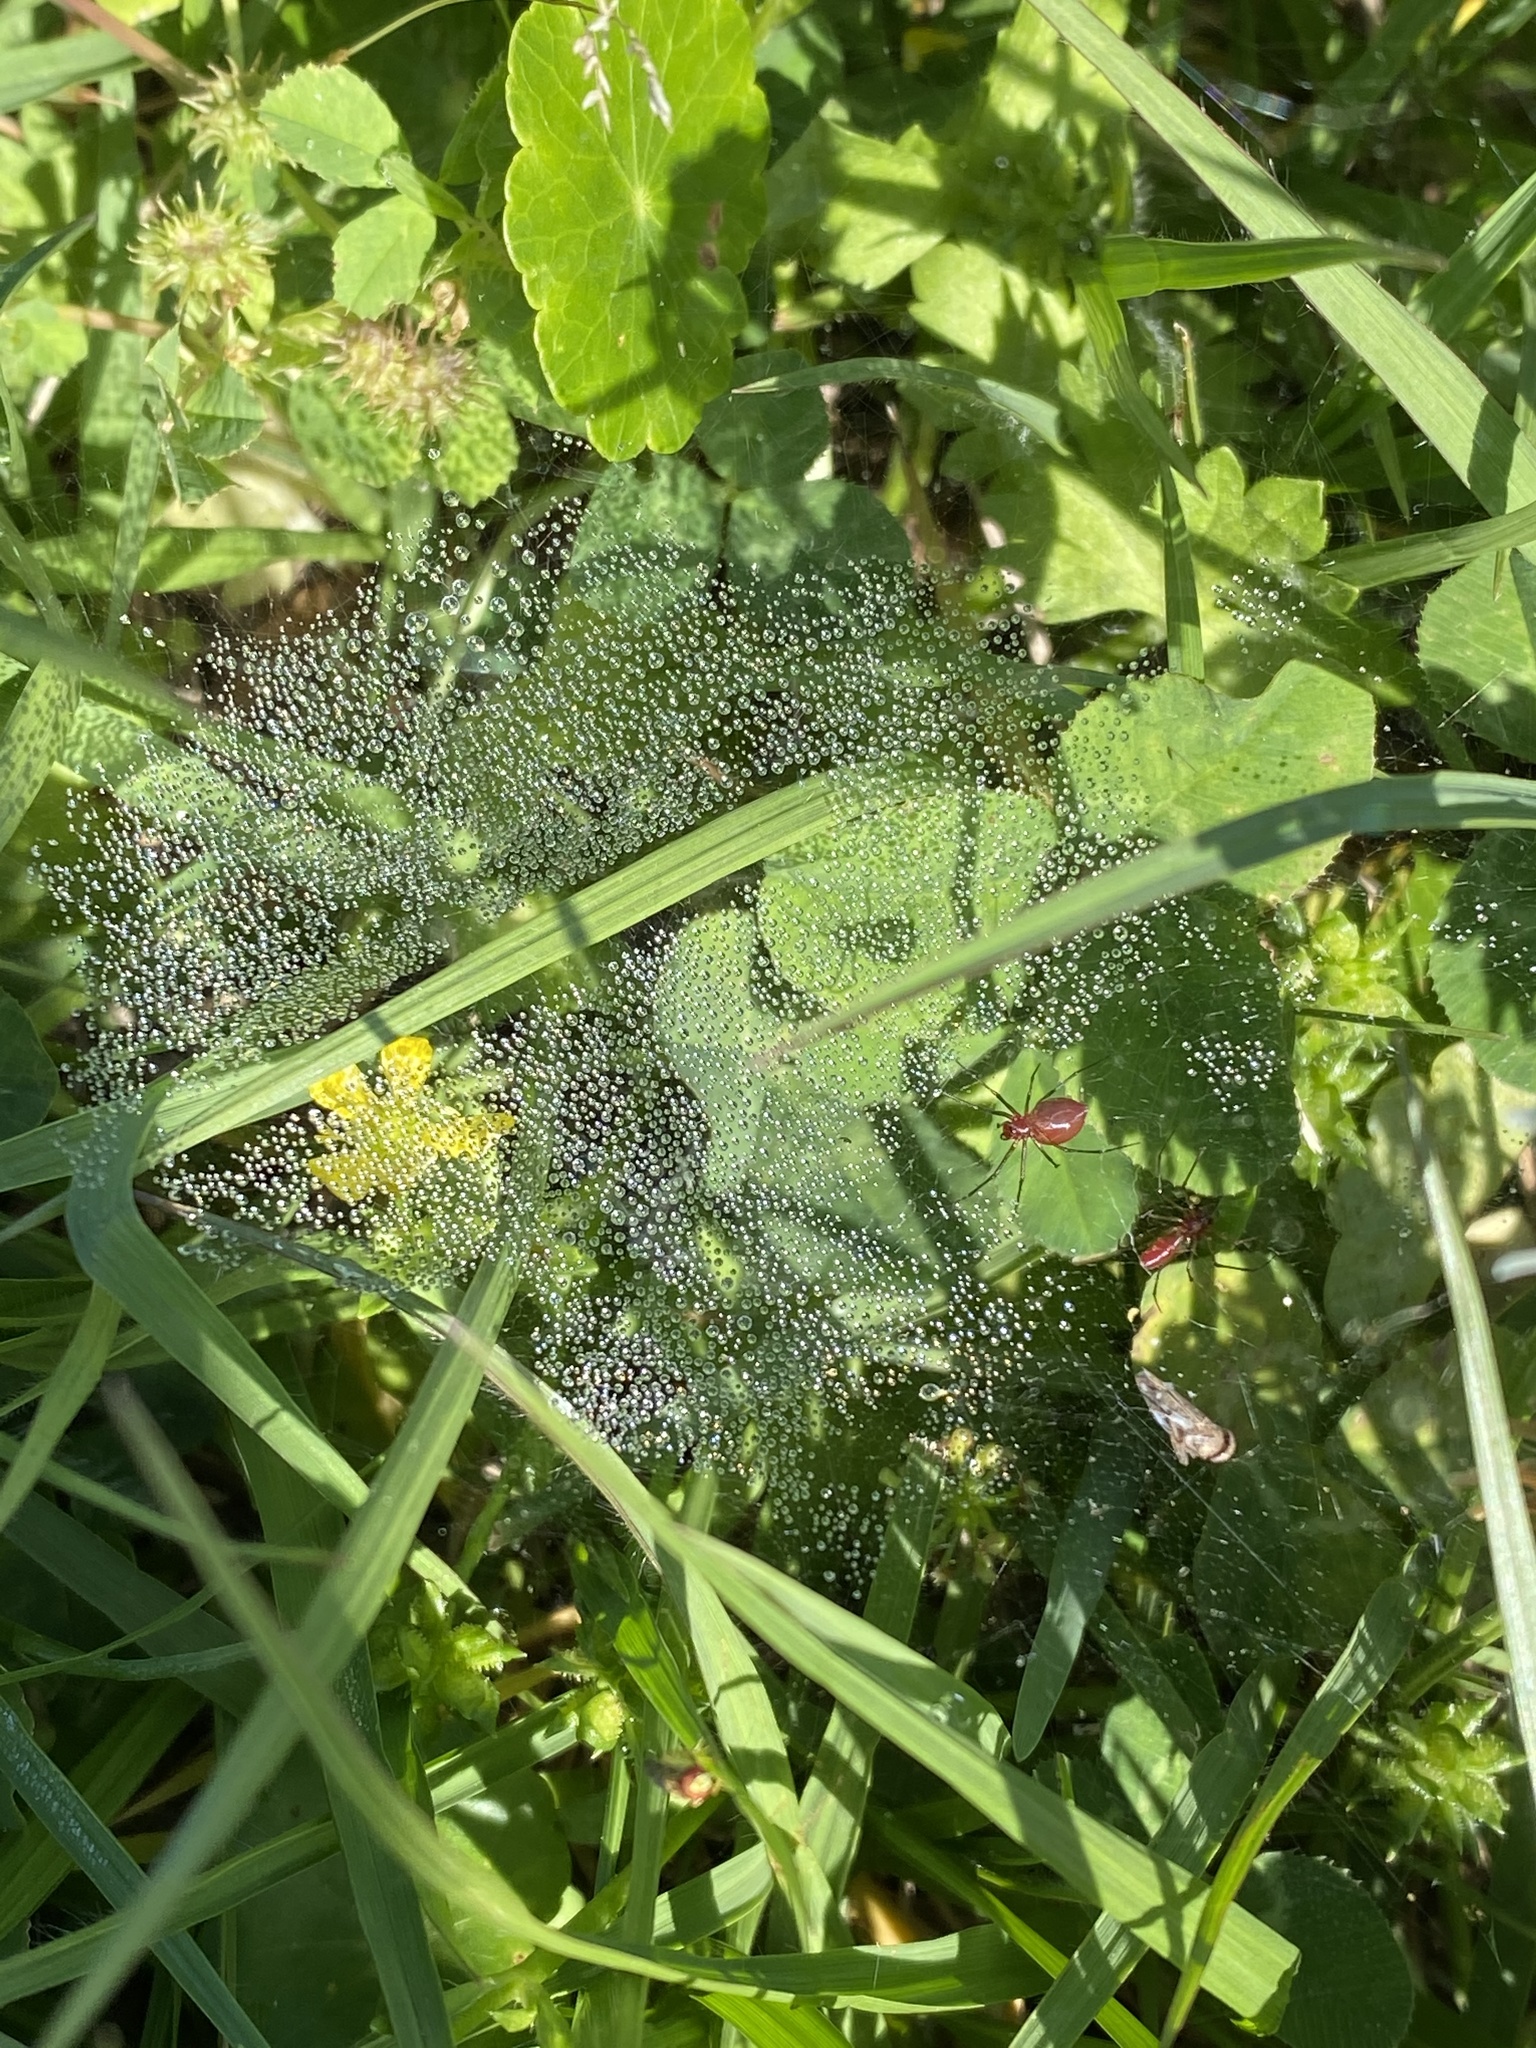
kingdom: Animalia
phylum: Arthropoda
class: Arachnida
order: Araneae
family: Linyphiidae
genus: Florinda
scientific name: Florinda coccinea
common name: Black-tailed red sheetweaver
